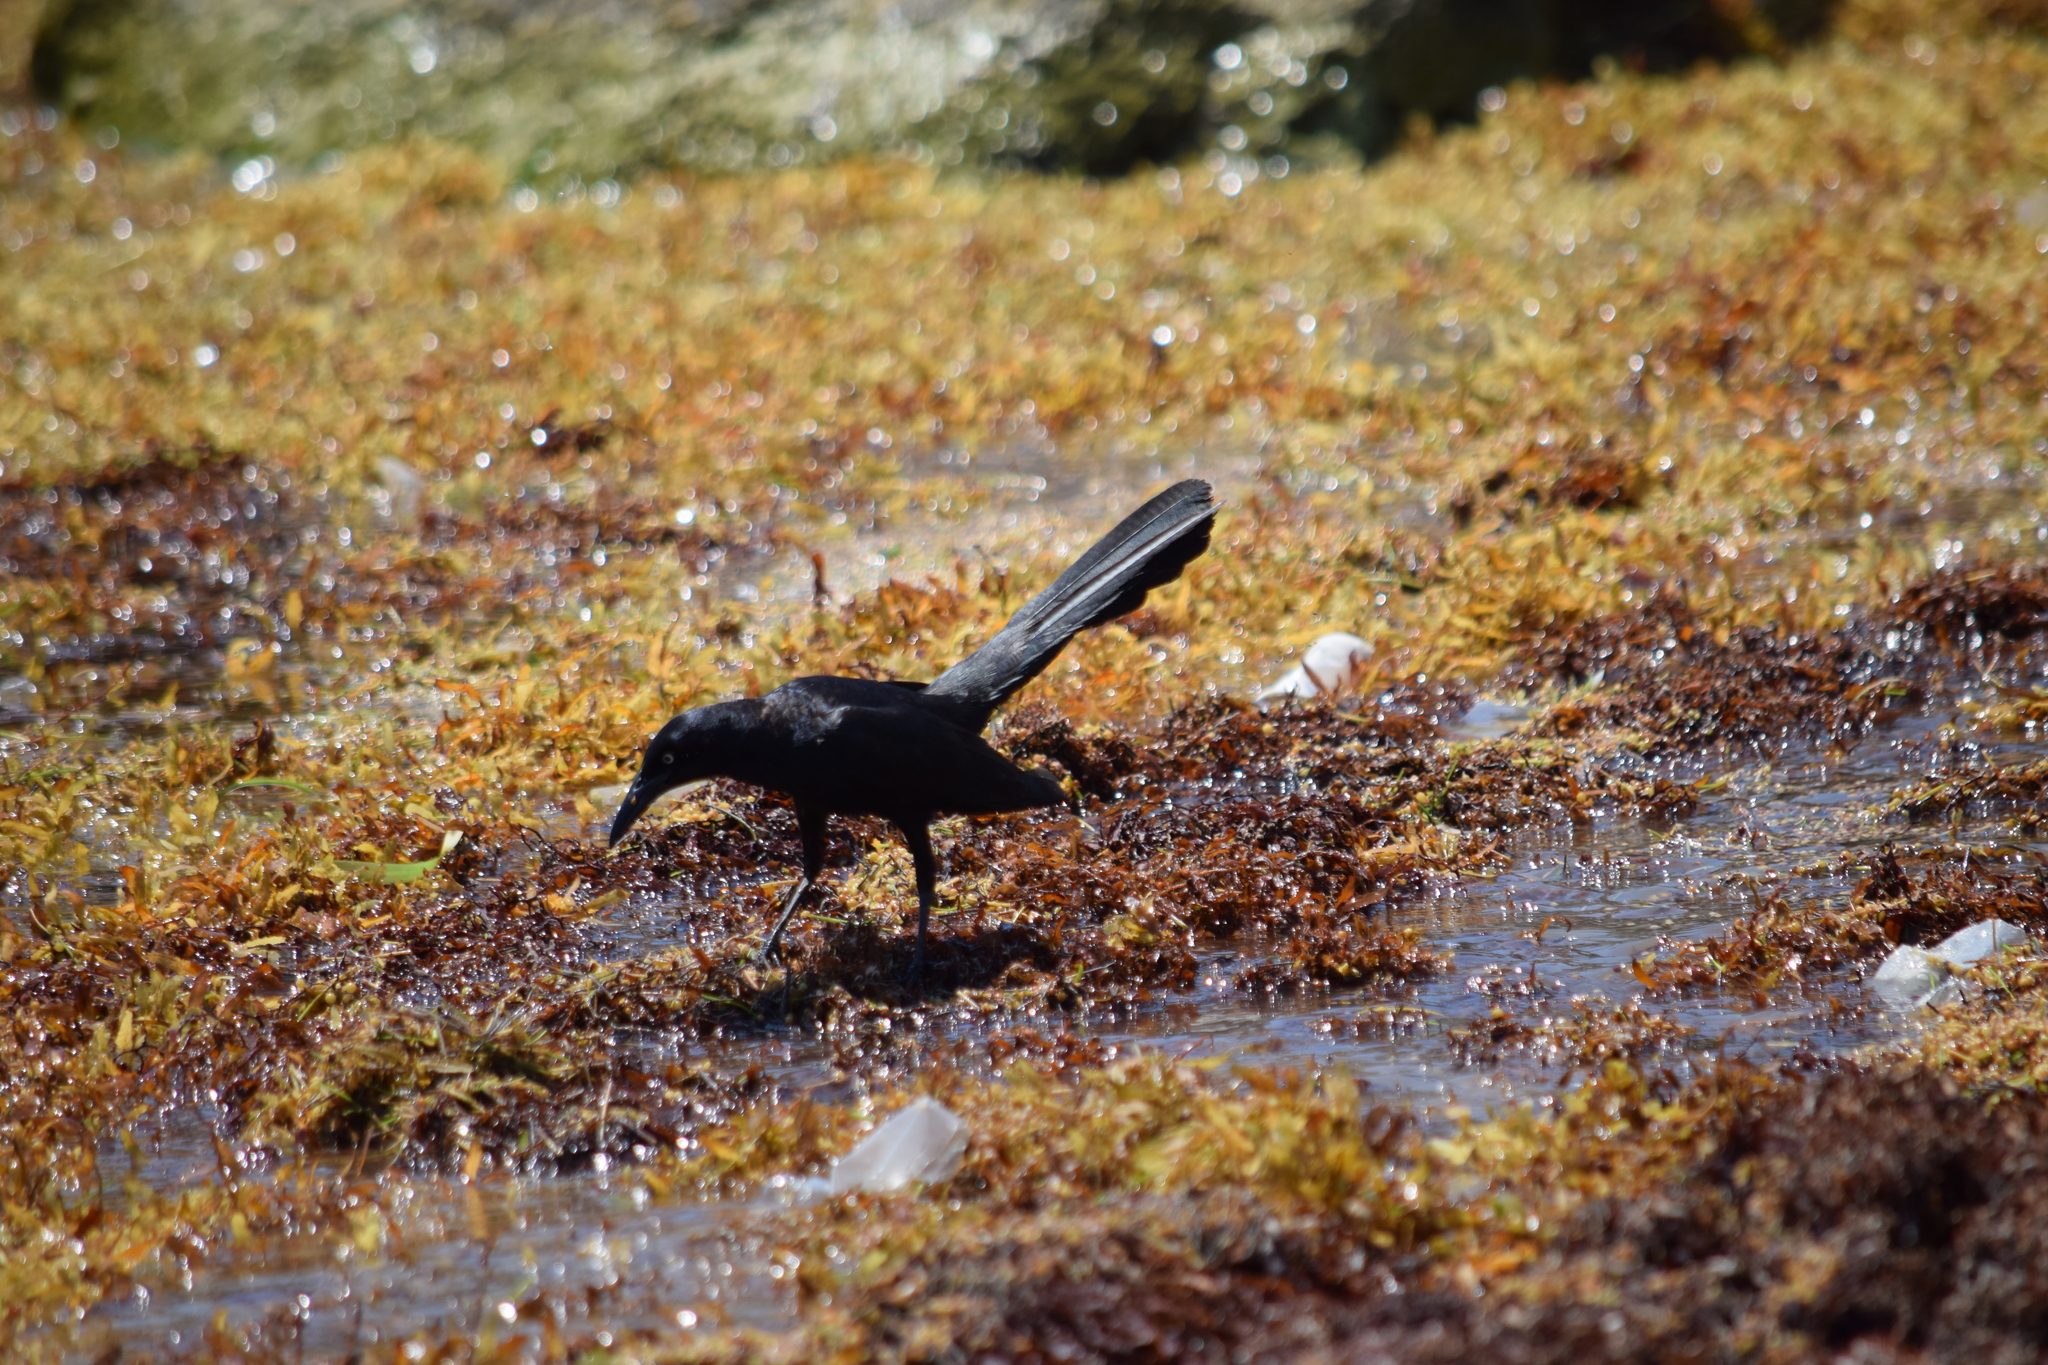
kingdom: Animalia
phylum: Chordata
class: Aves
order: Passeriformes
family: Icteridae
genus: Quiscalus
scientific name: Quiscalus mexicanus
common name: Great-tailed grackle
